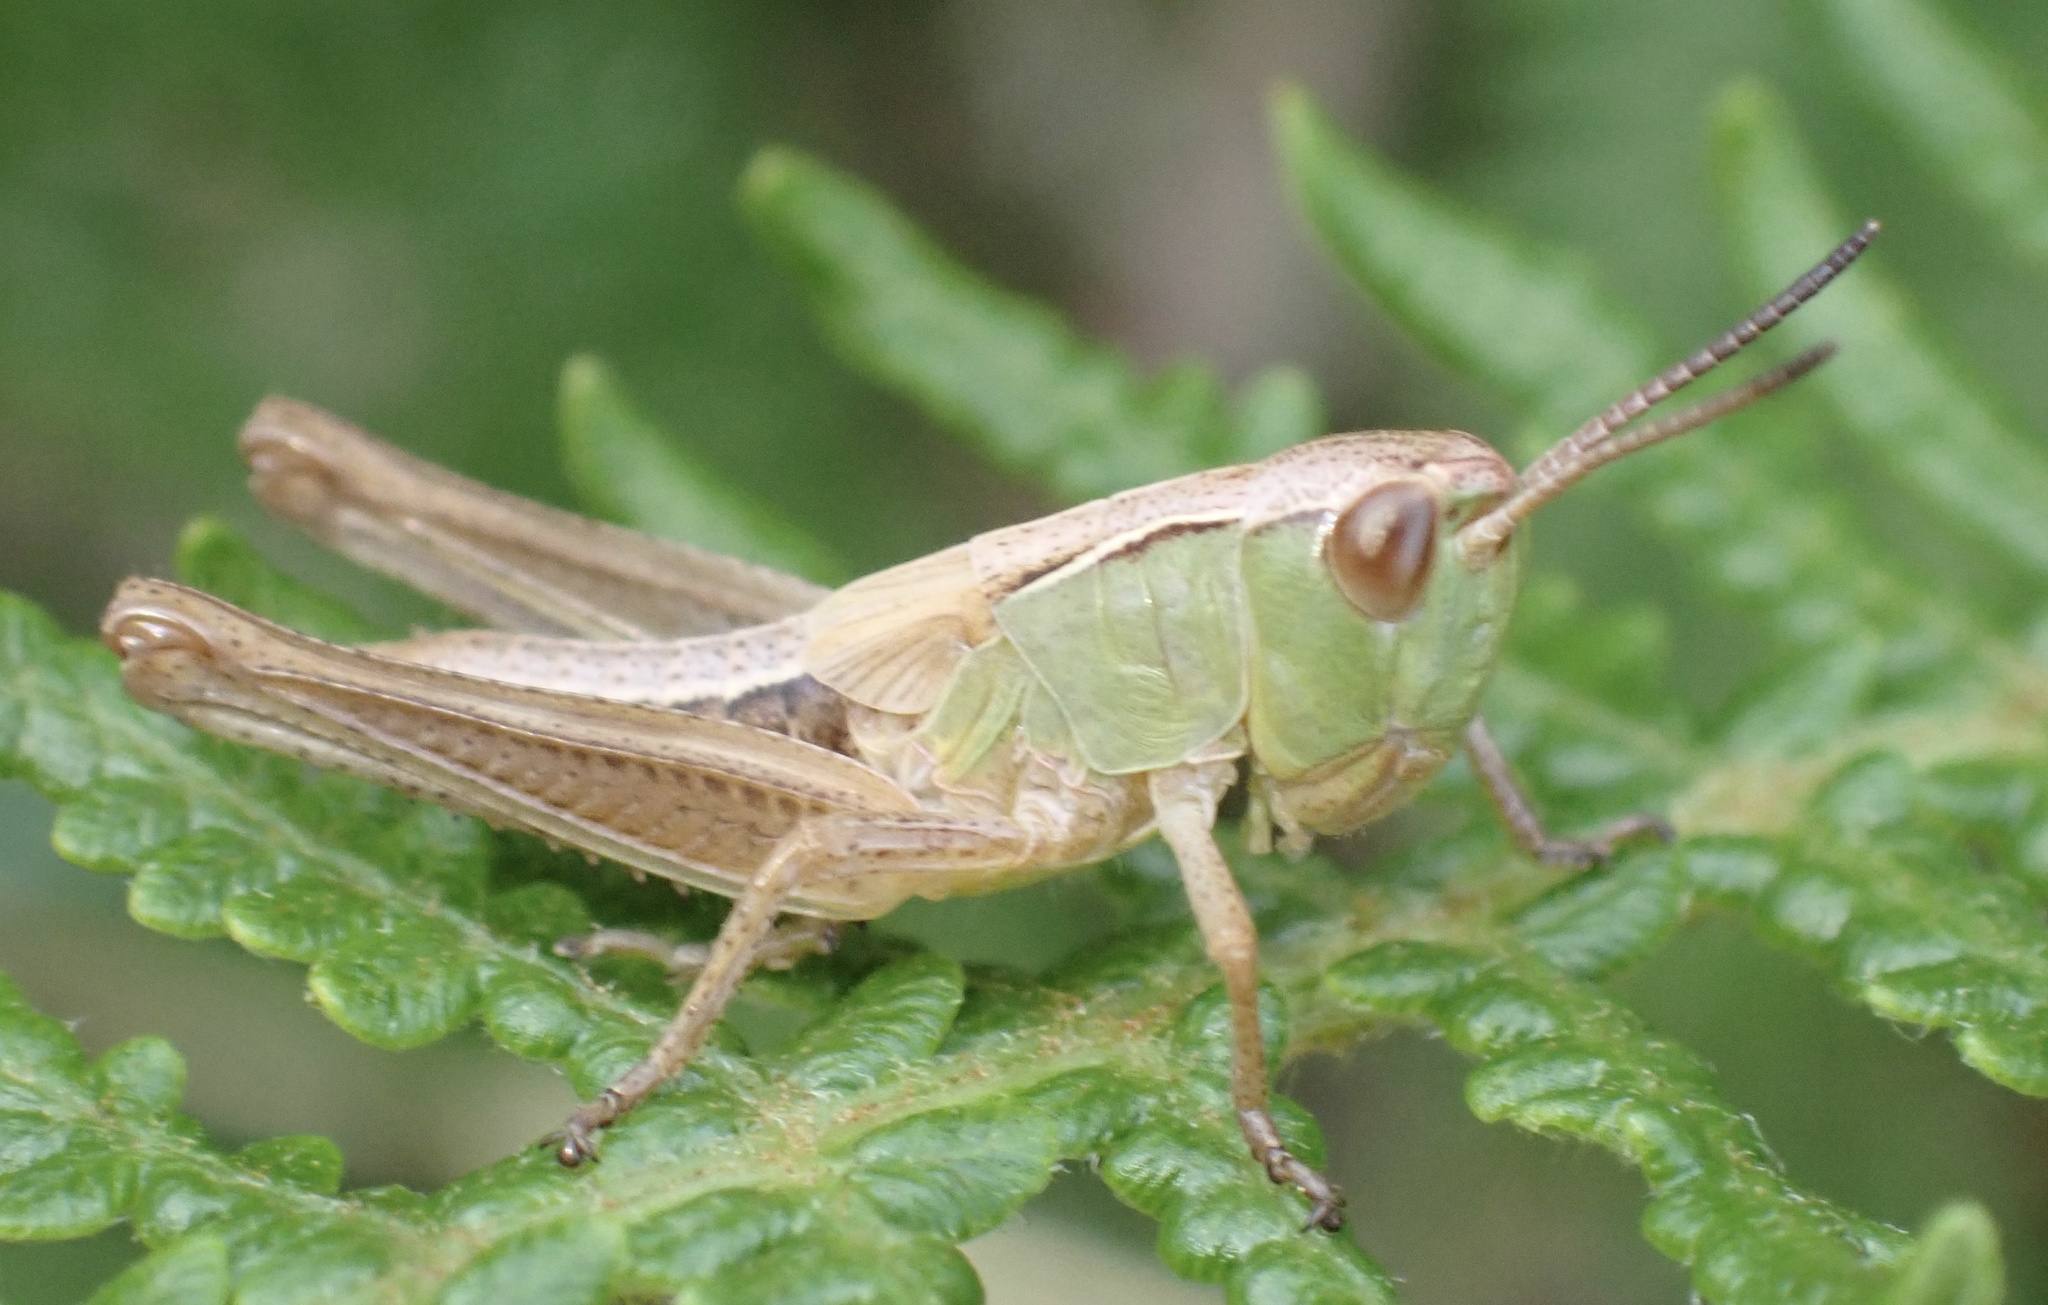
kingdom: Animalia
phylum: Arthropoda
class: Insecta
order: Orthoptera
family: Acrididae
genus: Pseudochorthippus
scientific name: Pseudochorthippus parallelus
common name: Meadow grasshopper
